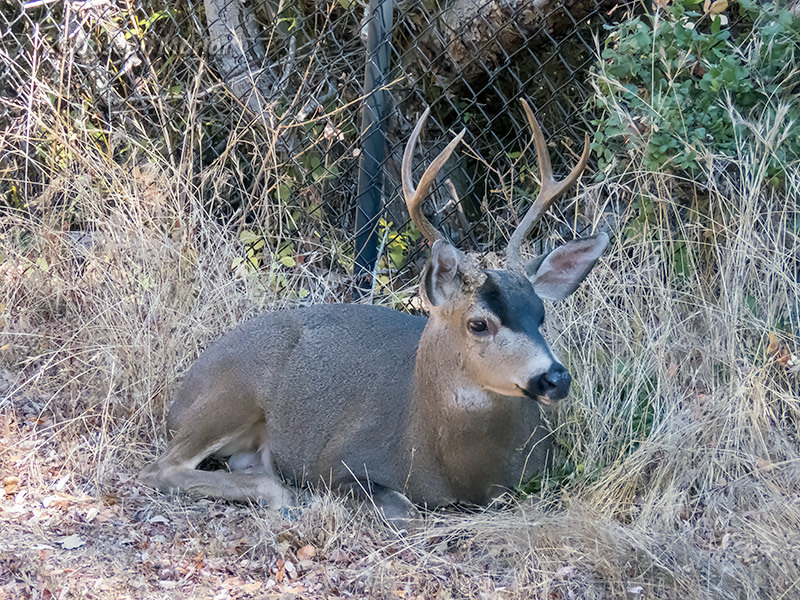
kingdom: Animalia
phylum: Chordata
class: Mammalia
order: Artiodactyla
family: Cervidae
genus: Odocoileus
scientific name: Odocoileus hemionus
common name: Mule deer
